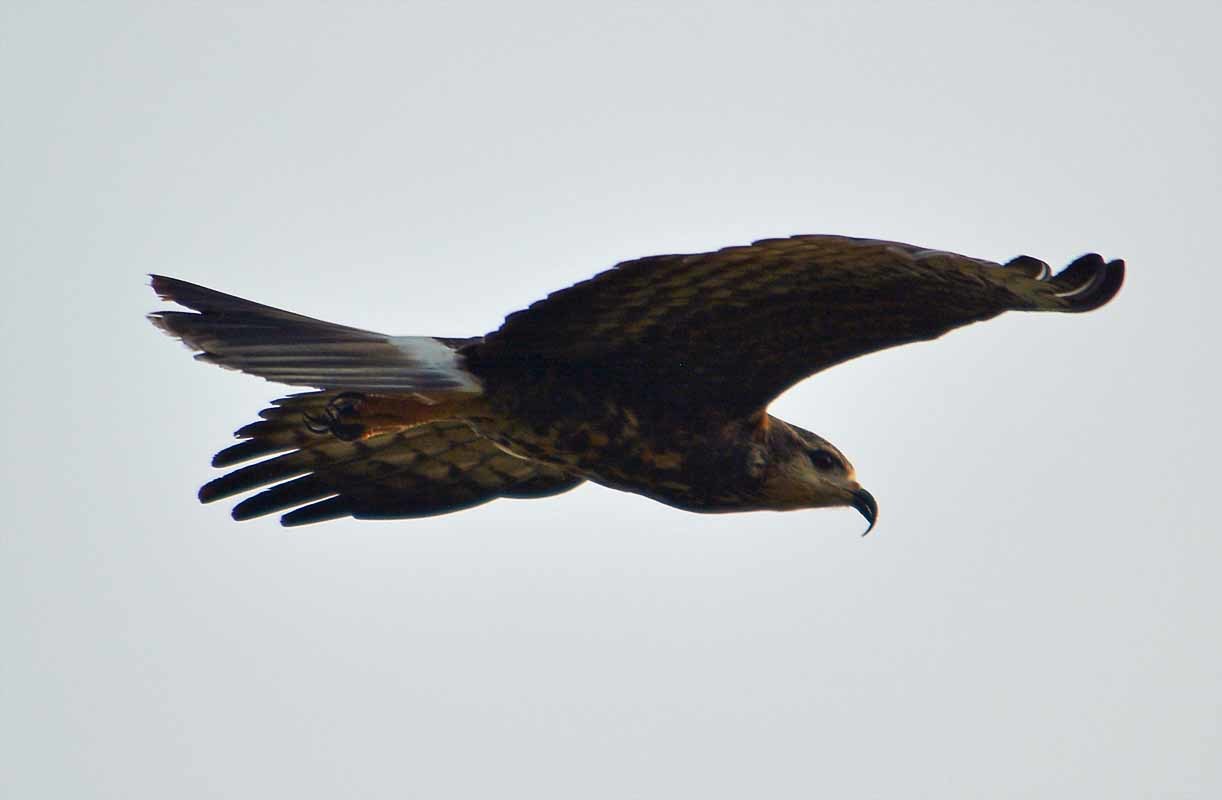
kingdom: Animalia
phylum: Chordata
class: Aves
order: Accipitriformes
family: Accipitridae
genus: Rostrhamus
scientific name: Rostrhamus sociabilis
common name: Snail kite
